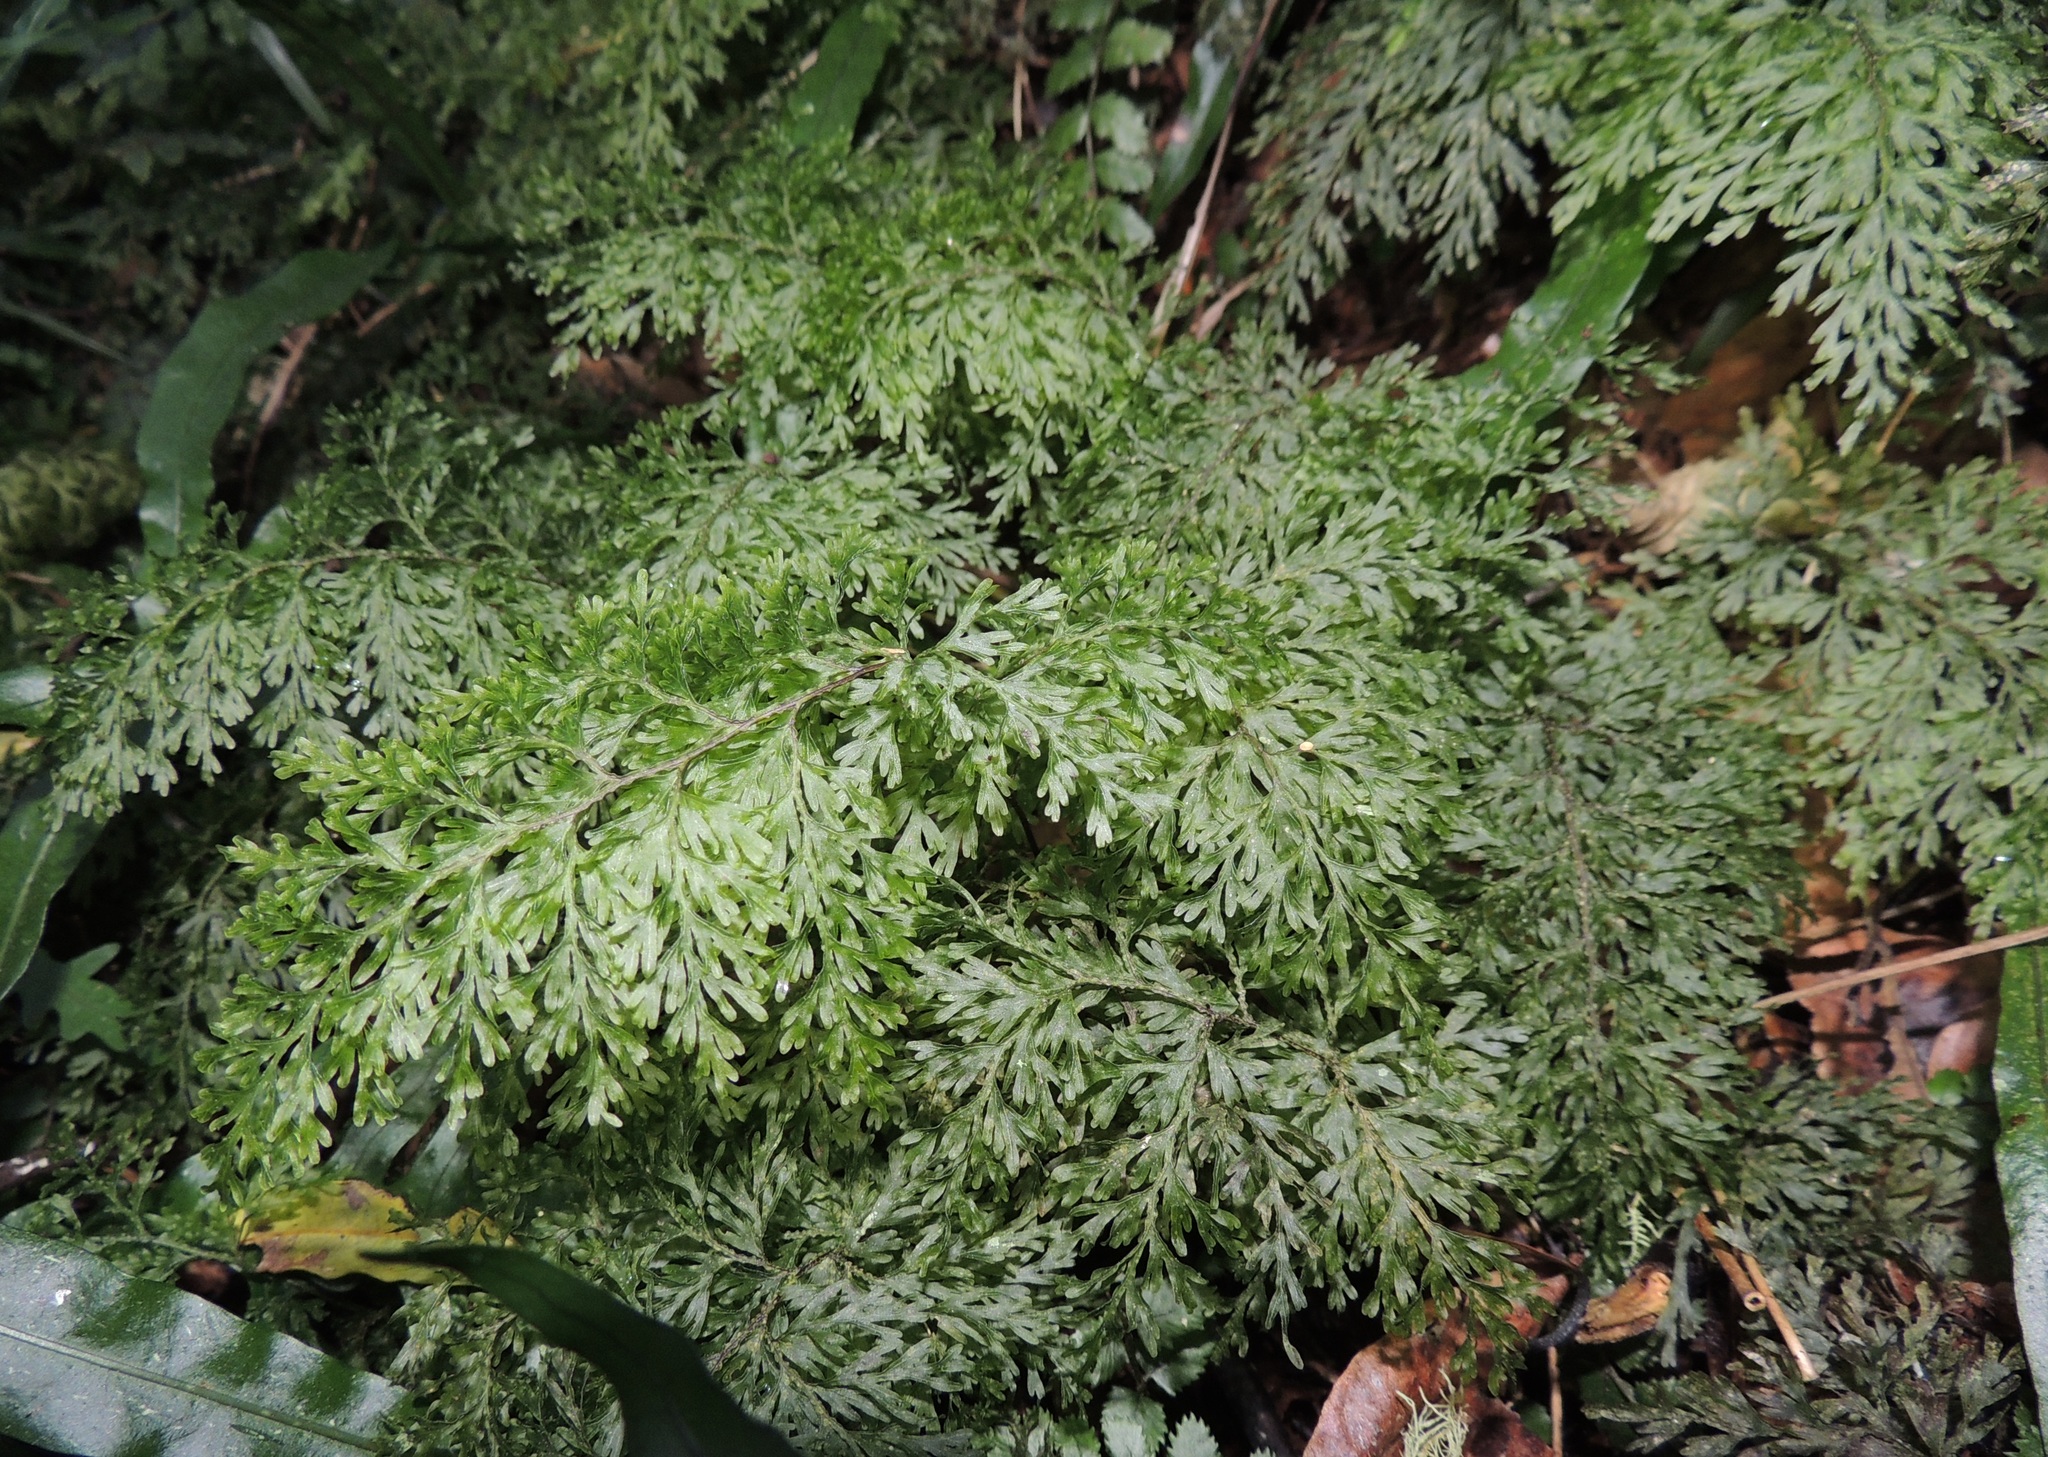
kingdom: Plantae
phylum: Tracheophyta
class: Polypodiopsida
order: Hymenophyllales
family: Hymenophyllaceae
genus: Hymenophyllum
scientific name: Hymenophyllum demissum
